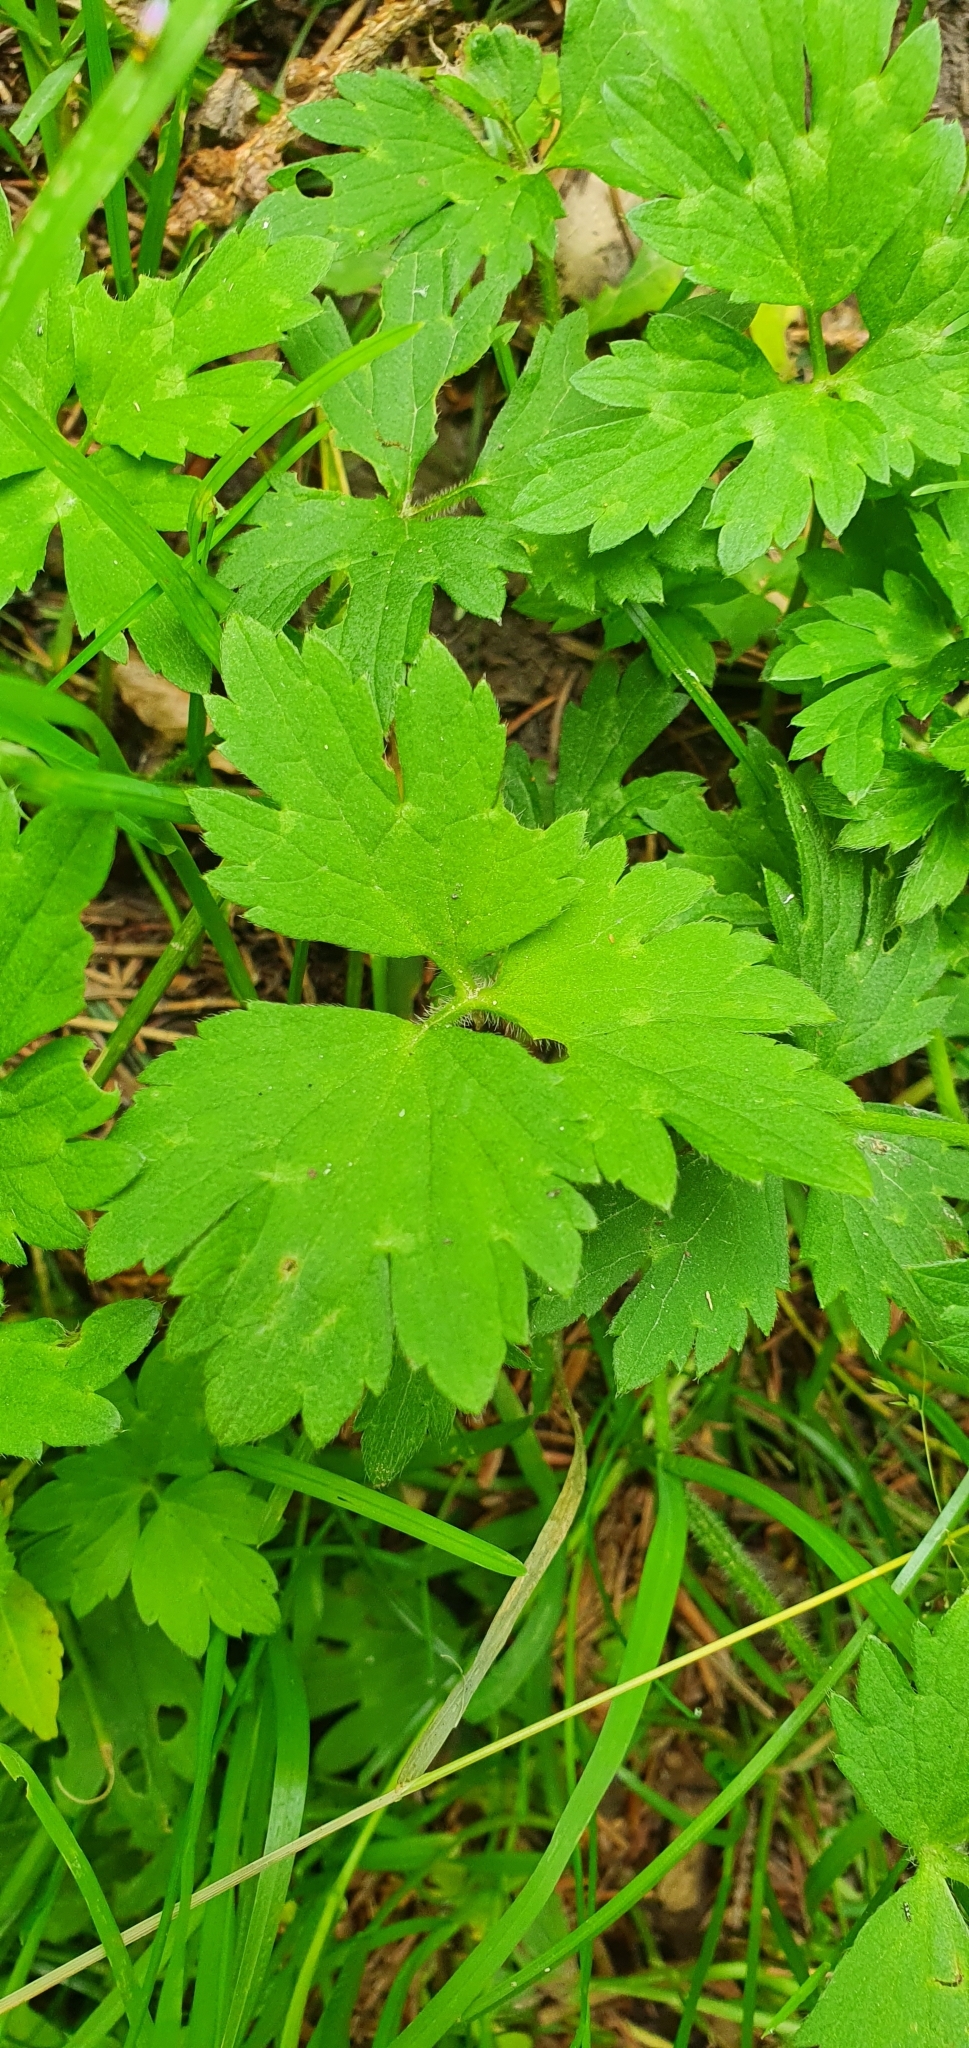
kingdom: Plantae
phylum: Tracheophyta
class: Magnoliopsida
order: Ranunculales
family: Ranunculaceae
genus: Ranunculus
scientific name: Ranunculus repens
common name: Creeping buttercup
